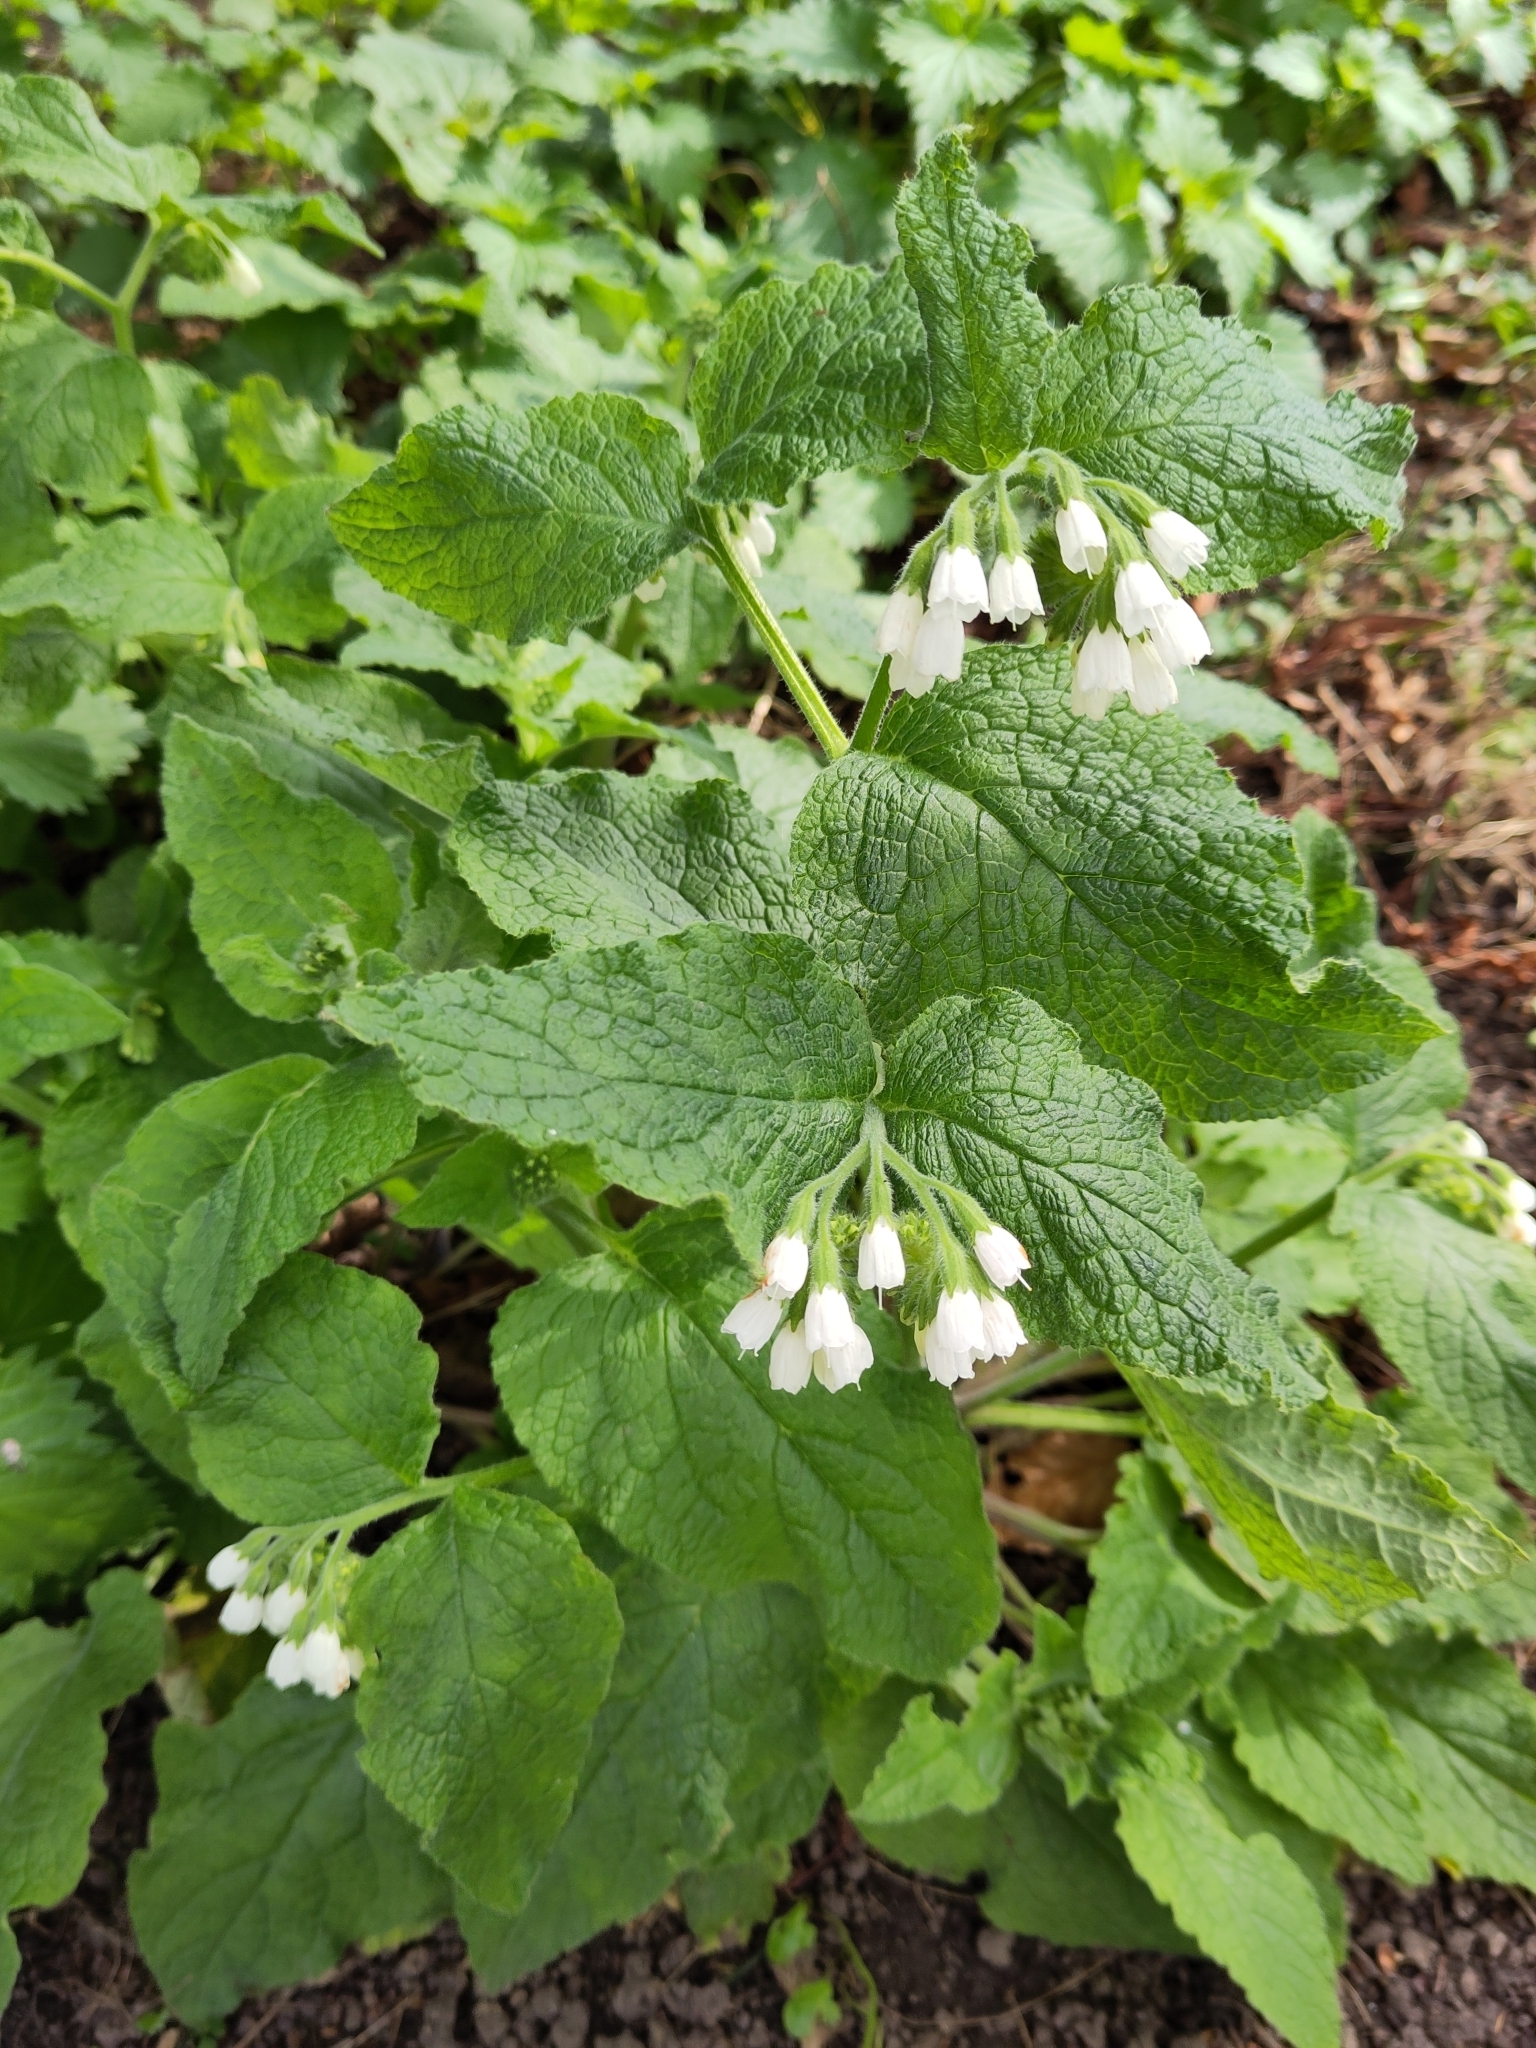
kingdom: Plantae
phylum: Tracheophyta
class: Magnoliopsida
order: Boraginales
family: Boraginaceae
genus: Symphytum
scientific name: Symphytum orientale
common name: White comfrey
